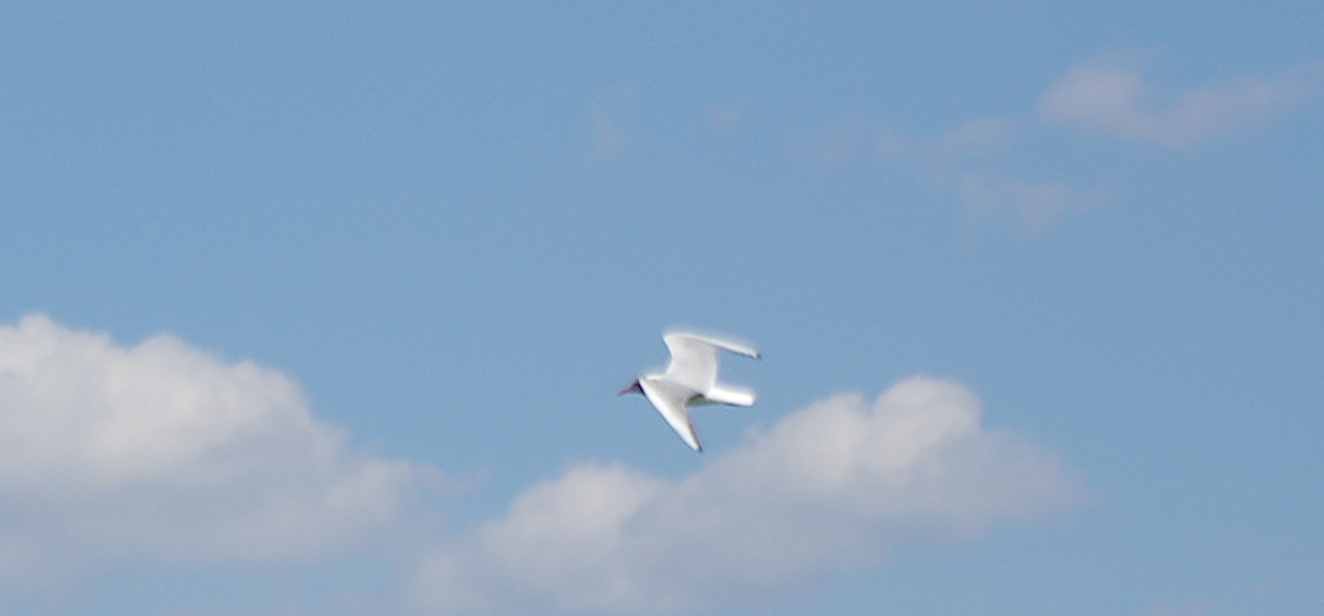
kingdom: Animalia
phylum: Chordata
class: Aves
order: Charadriiformes
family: Laridae
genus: Chroicocephalus
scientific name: Chroicocephalus ridibundus
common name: Black-headed gull
